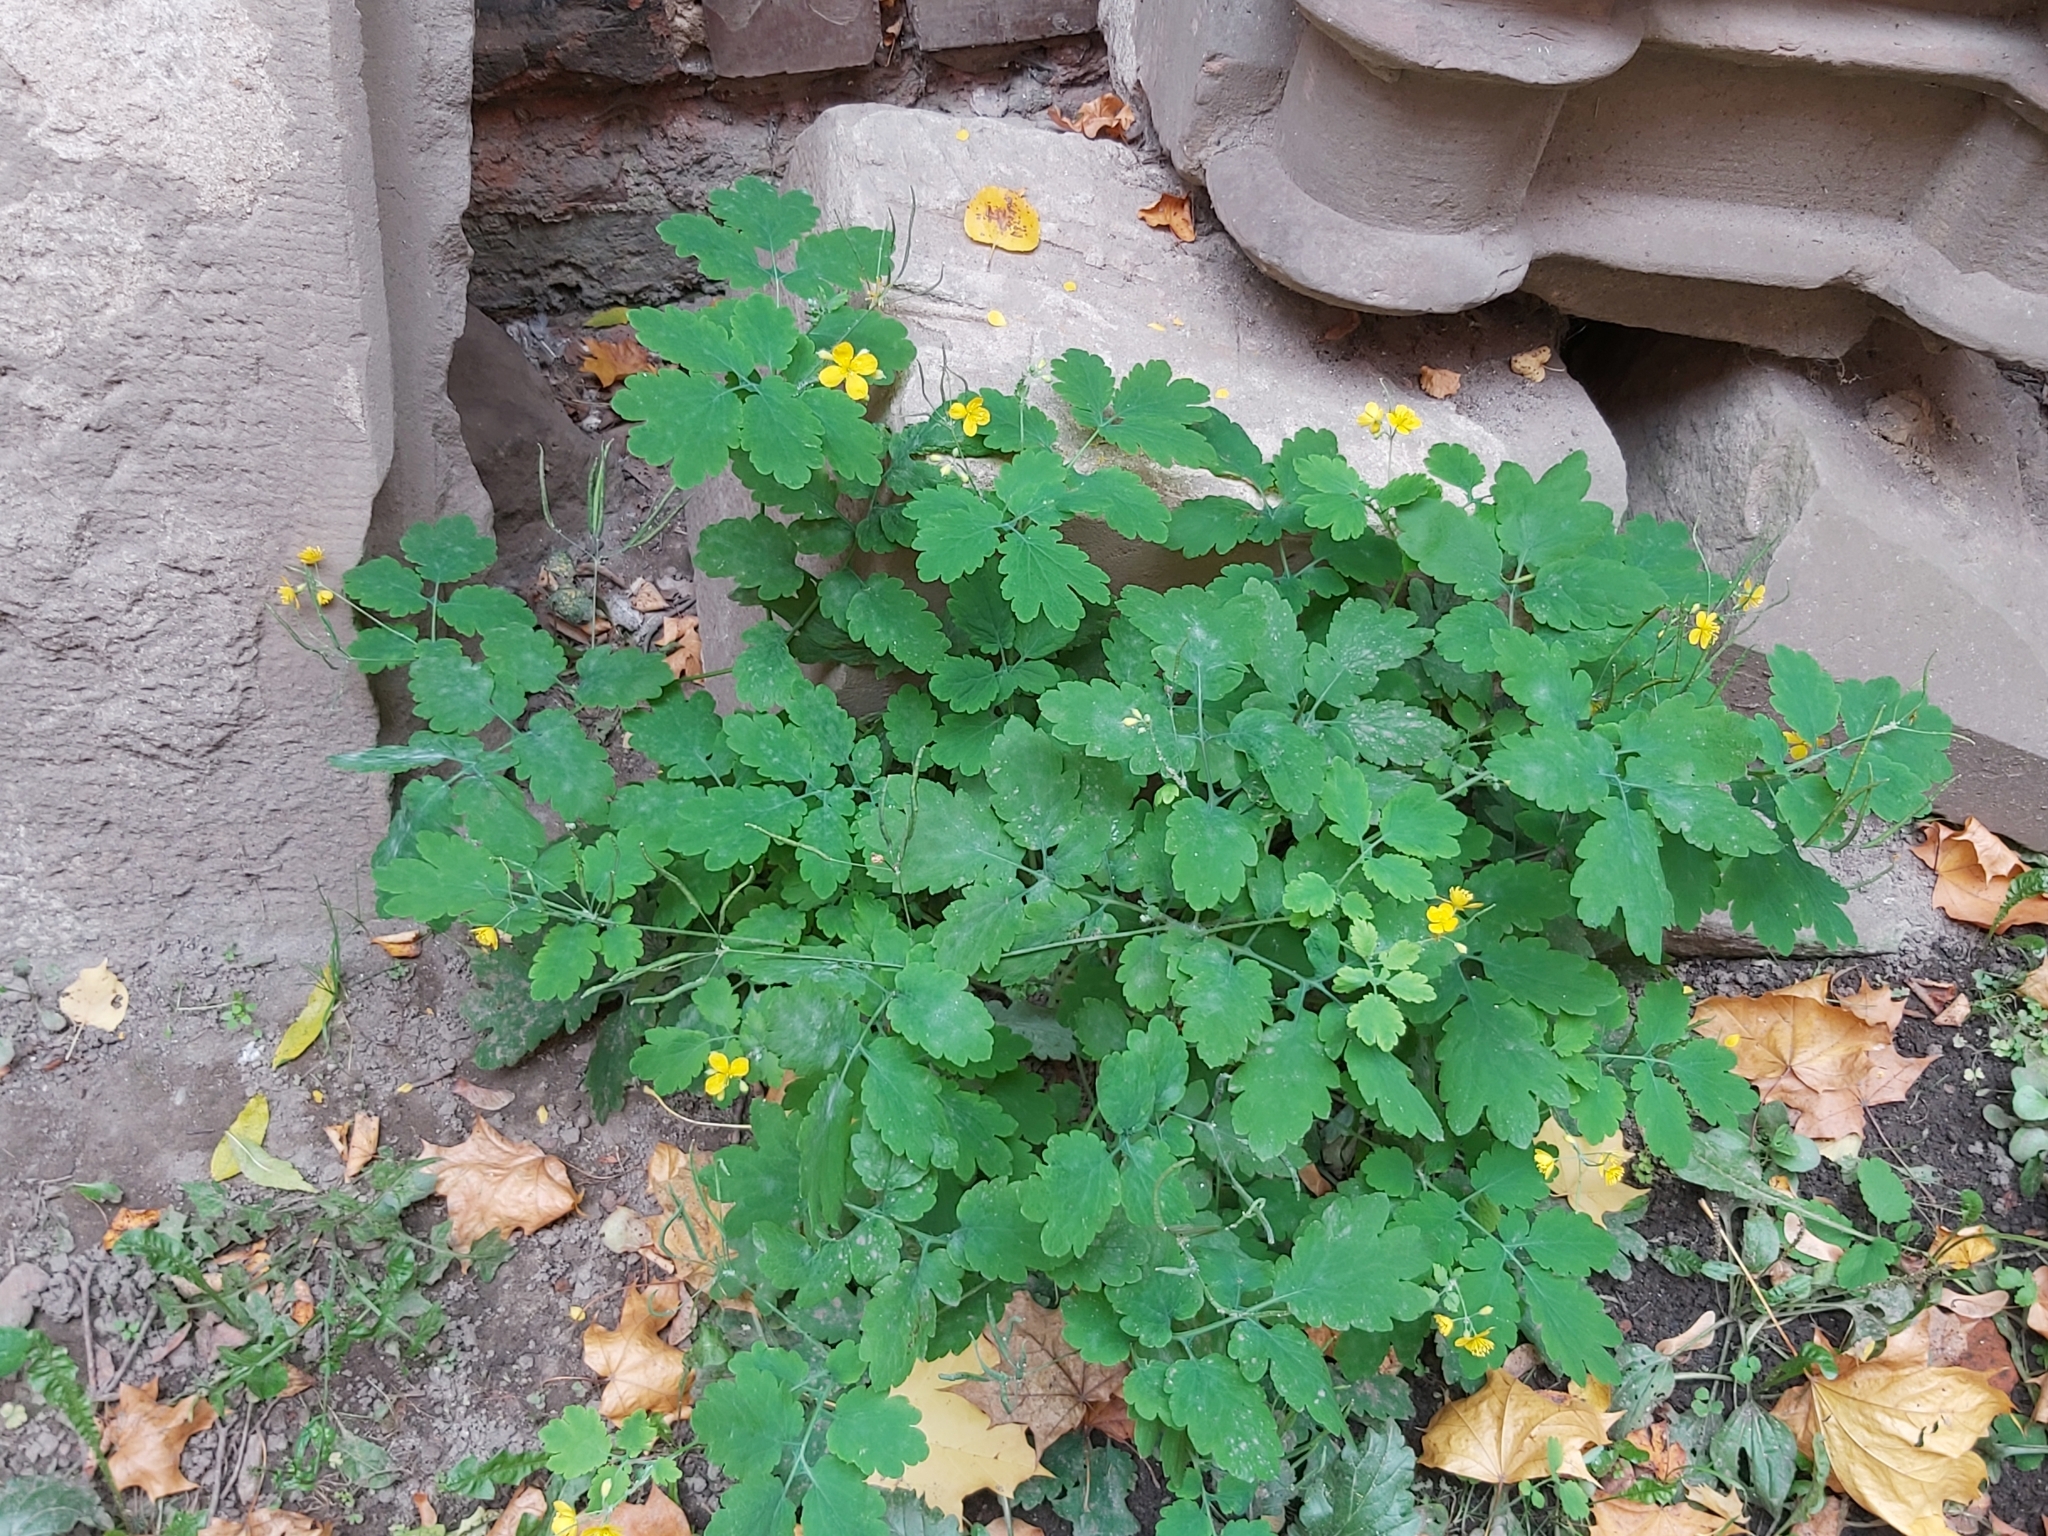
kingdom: Plantae
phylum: Tracheophyta
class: Magnoliopsida
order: Ranunculales
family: Papaveraceae
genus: Chelidonium
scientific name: Chelidonium majus
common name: Greater celandine
